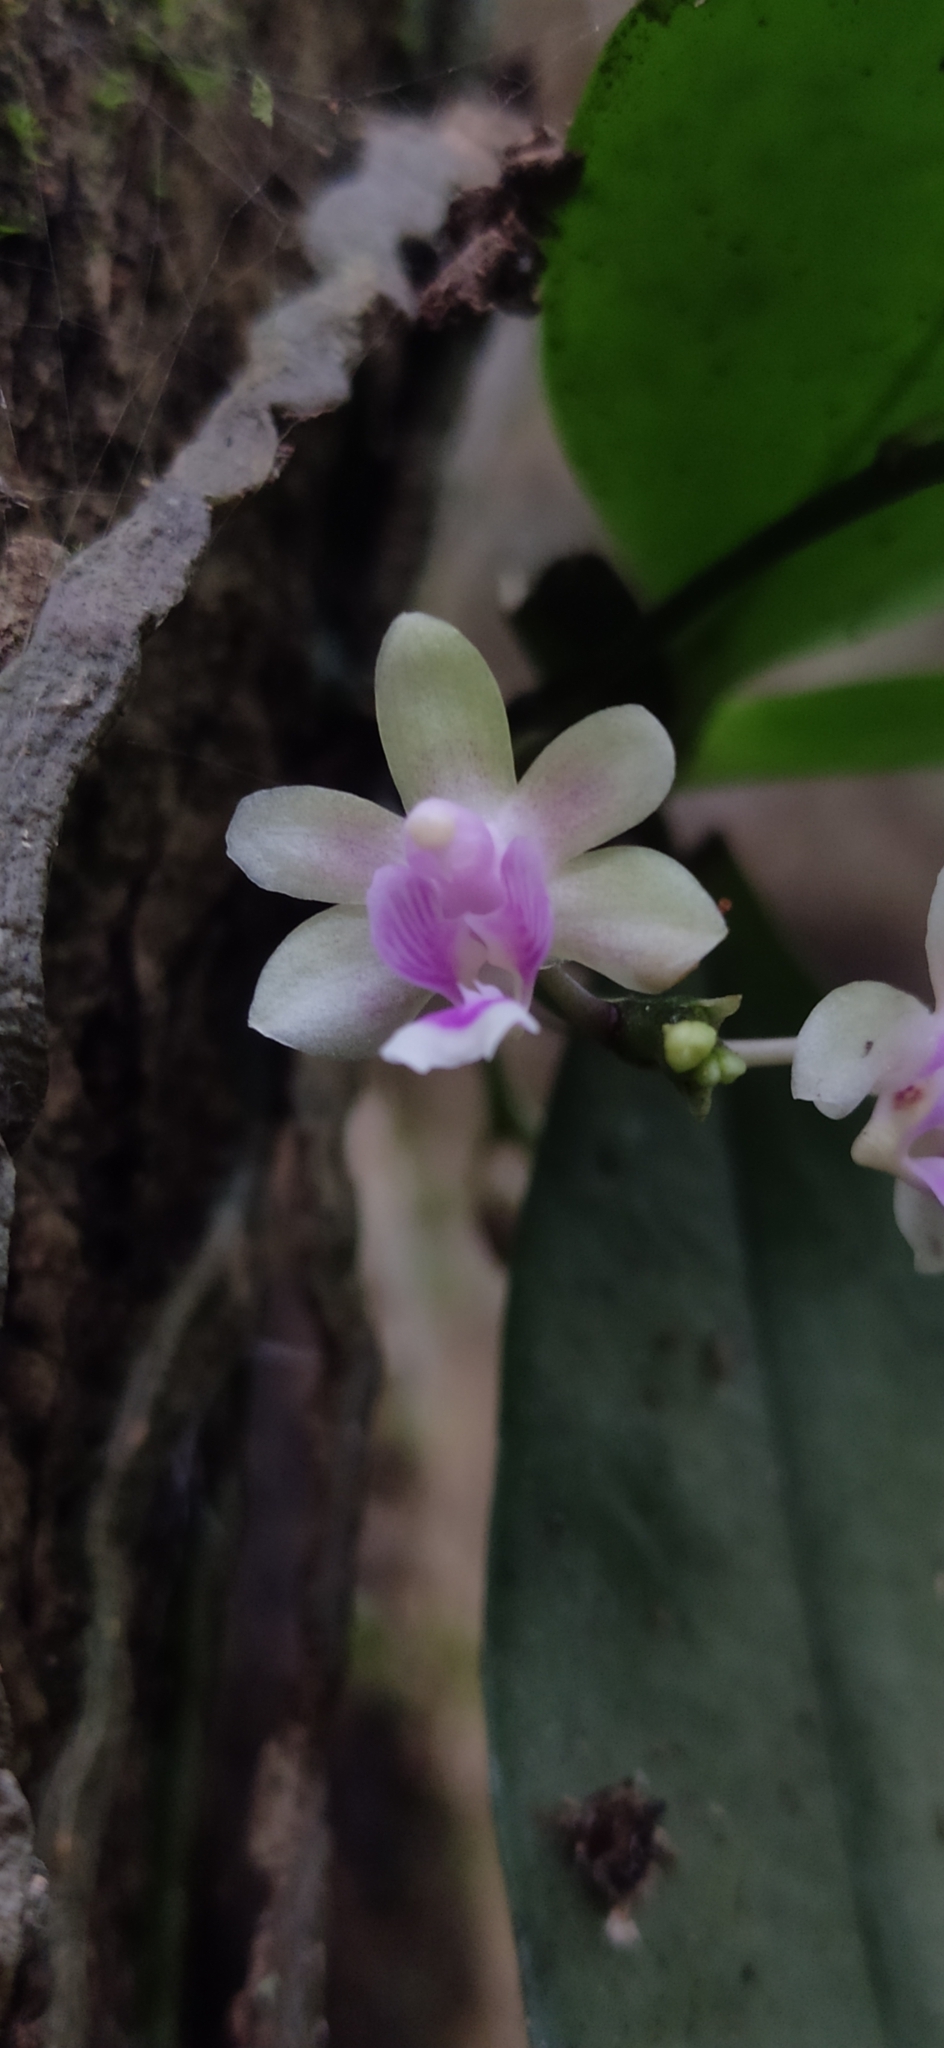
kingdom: Plantae
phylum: Tracheophyta
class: Liliopsida
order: Asparagales
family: Orchidaceae
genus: Phalaenopsis
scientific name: Phalaenopsis deliciosa
